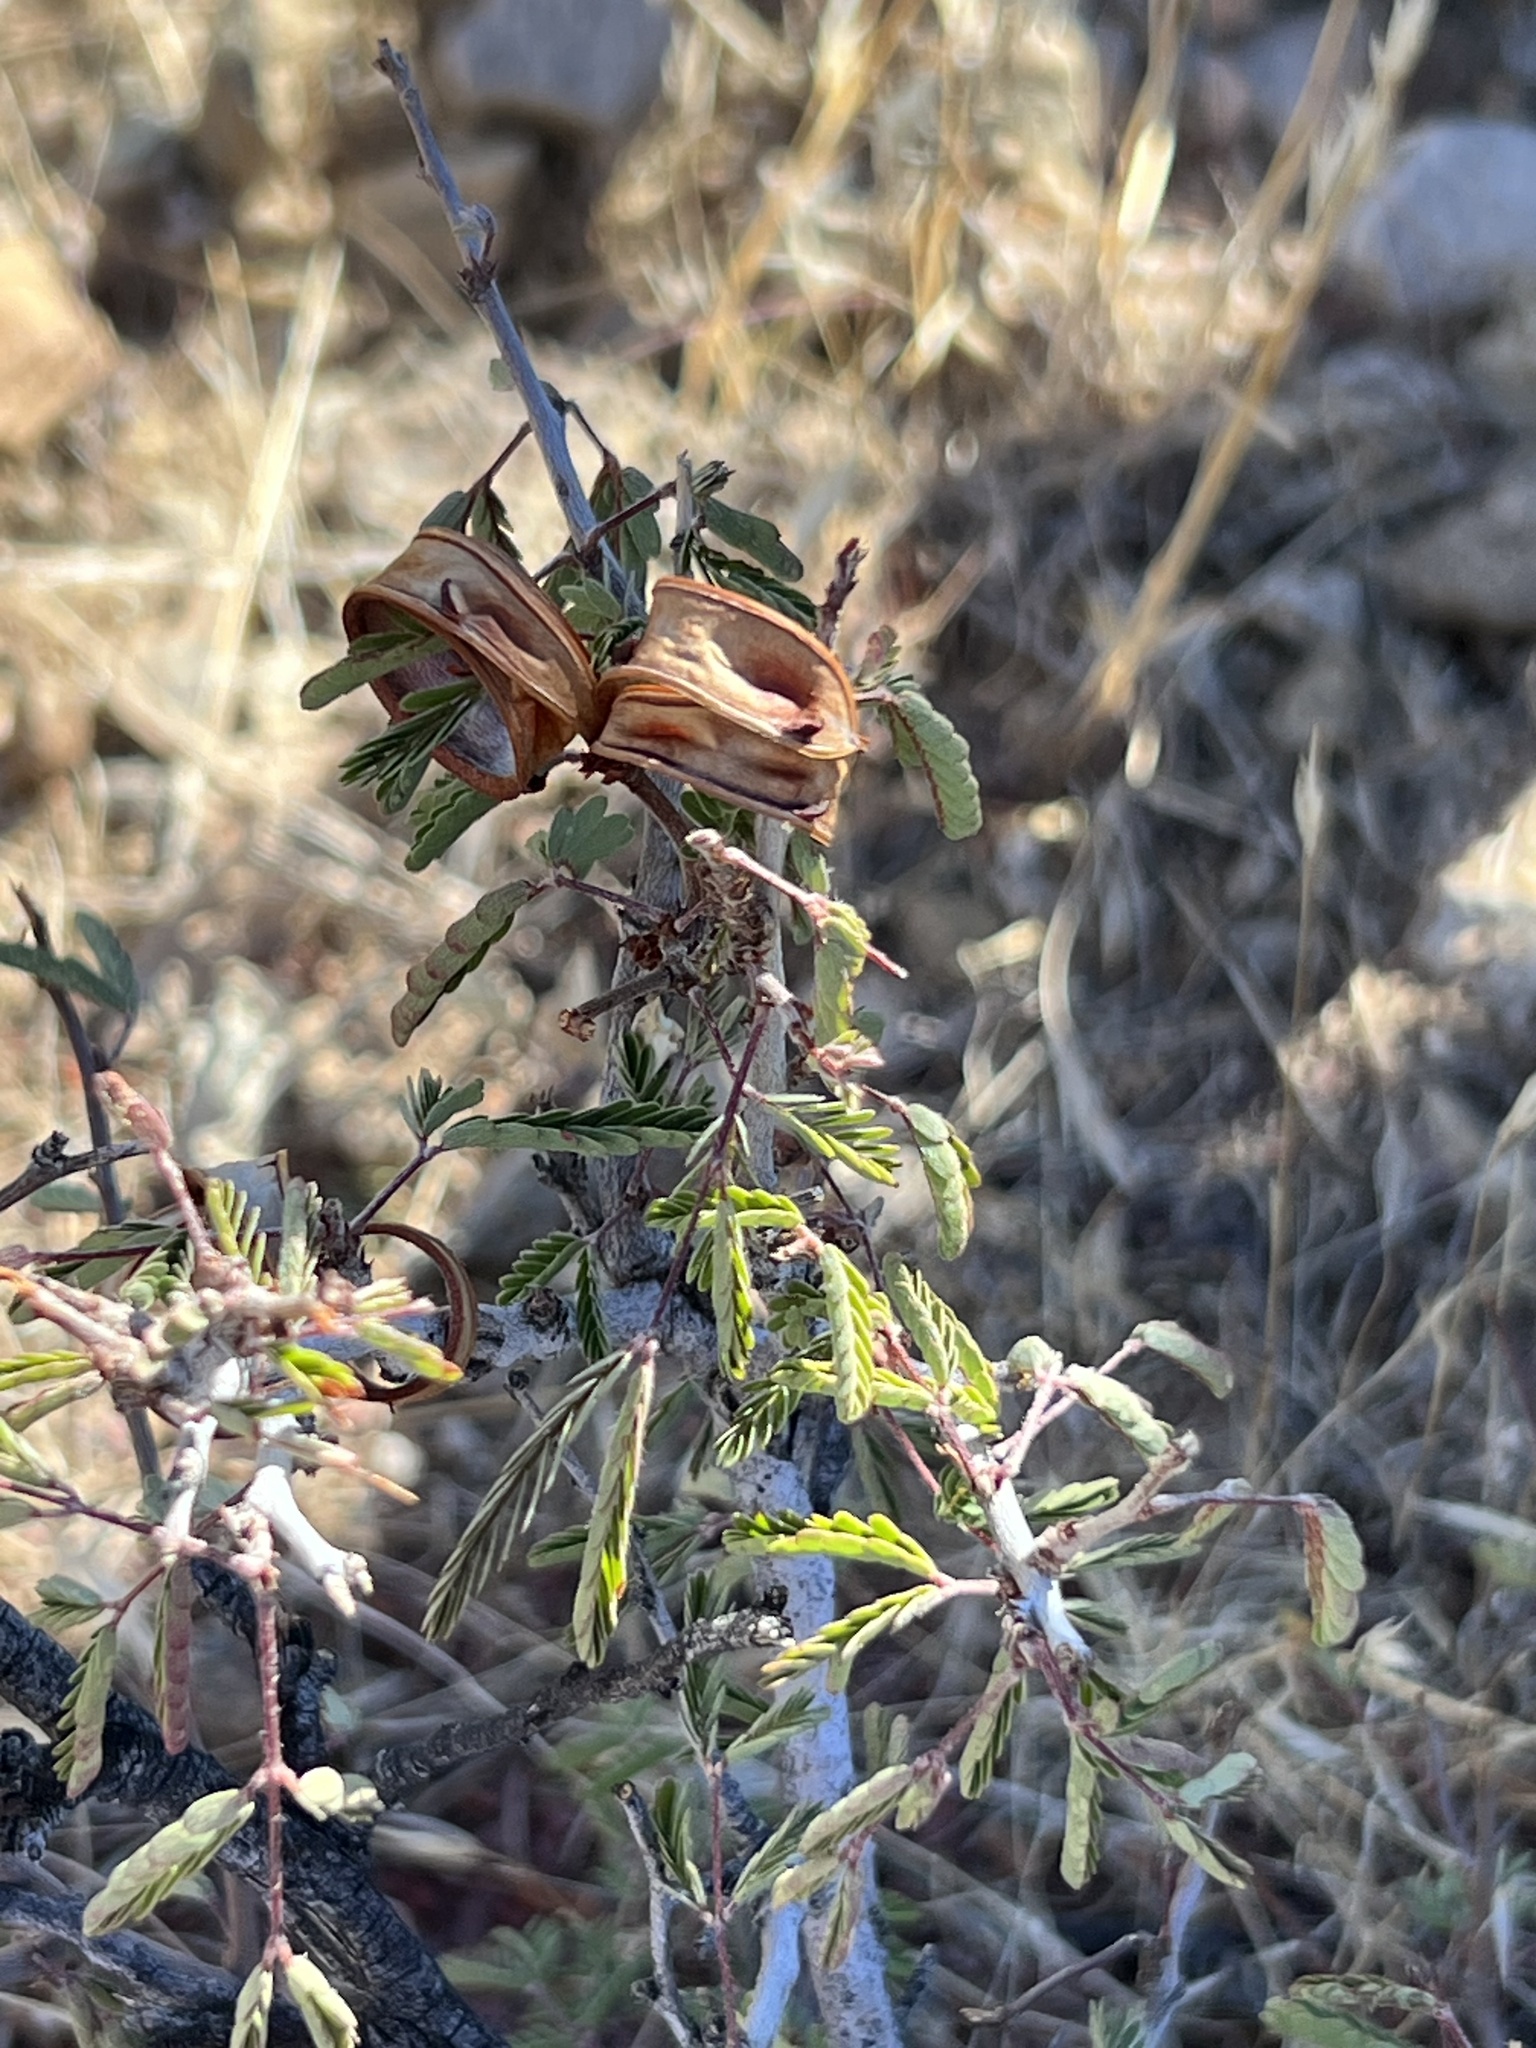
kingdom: Plantae
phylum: Tracheophyta
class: Magnoliopsida
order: Fabales
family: Fabaceae
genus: Calliandra
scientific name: Calliandra eriophylla
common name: Fairy-duster
